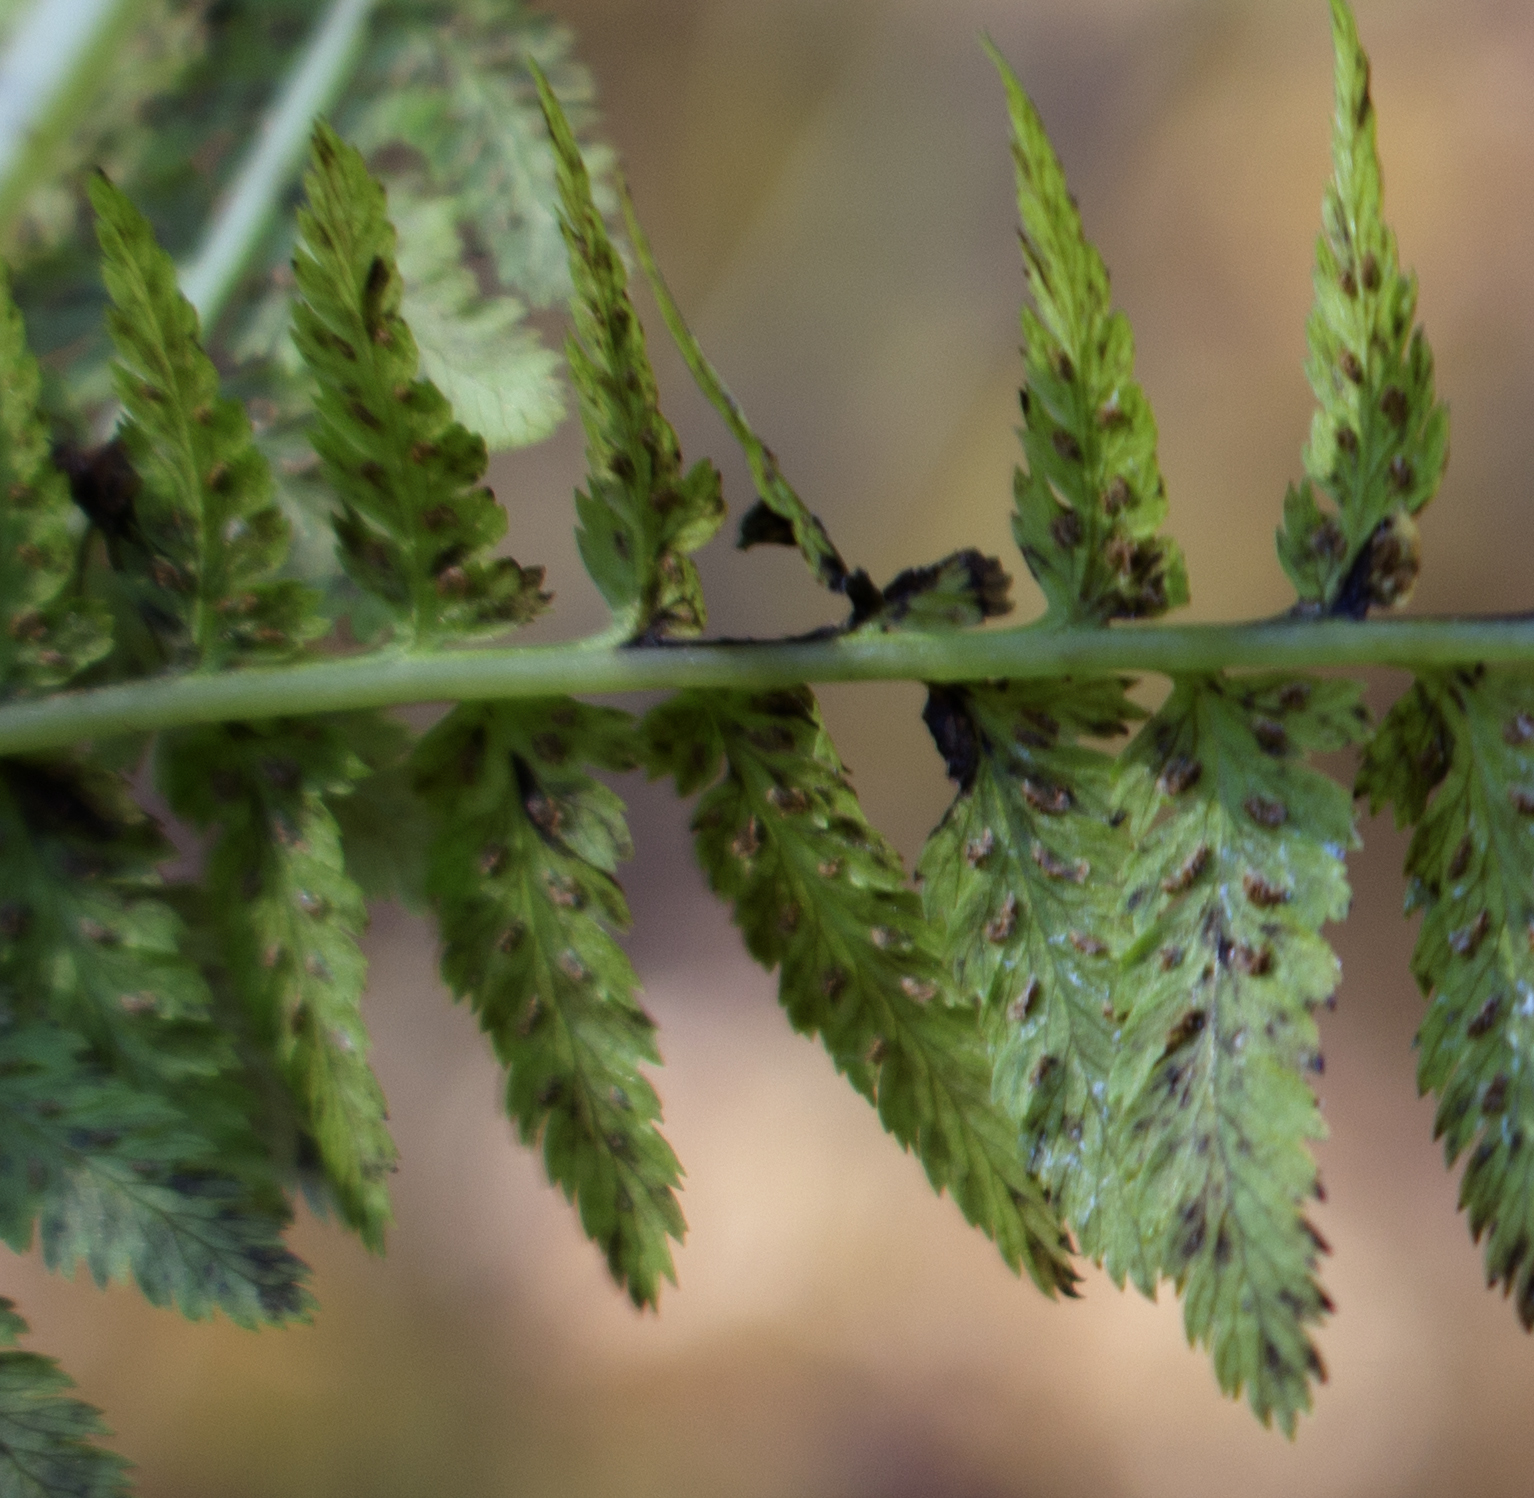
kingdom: Plantae
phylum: Tracheophyta
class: Polypodiopsida
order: Polypodiales
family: Dryopteridaceae
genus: Dryopteris
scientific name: Dryopteris carthusiana
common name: Narrow buckler-fern
